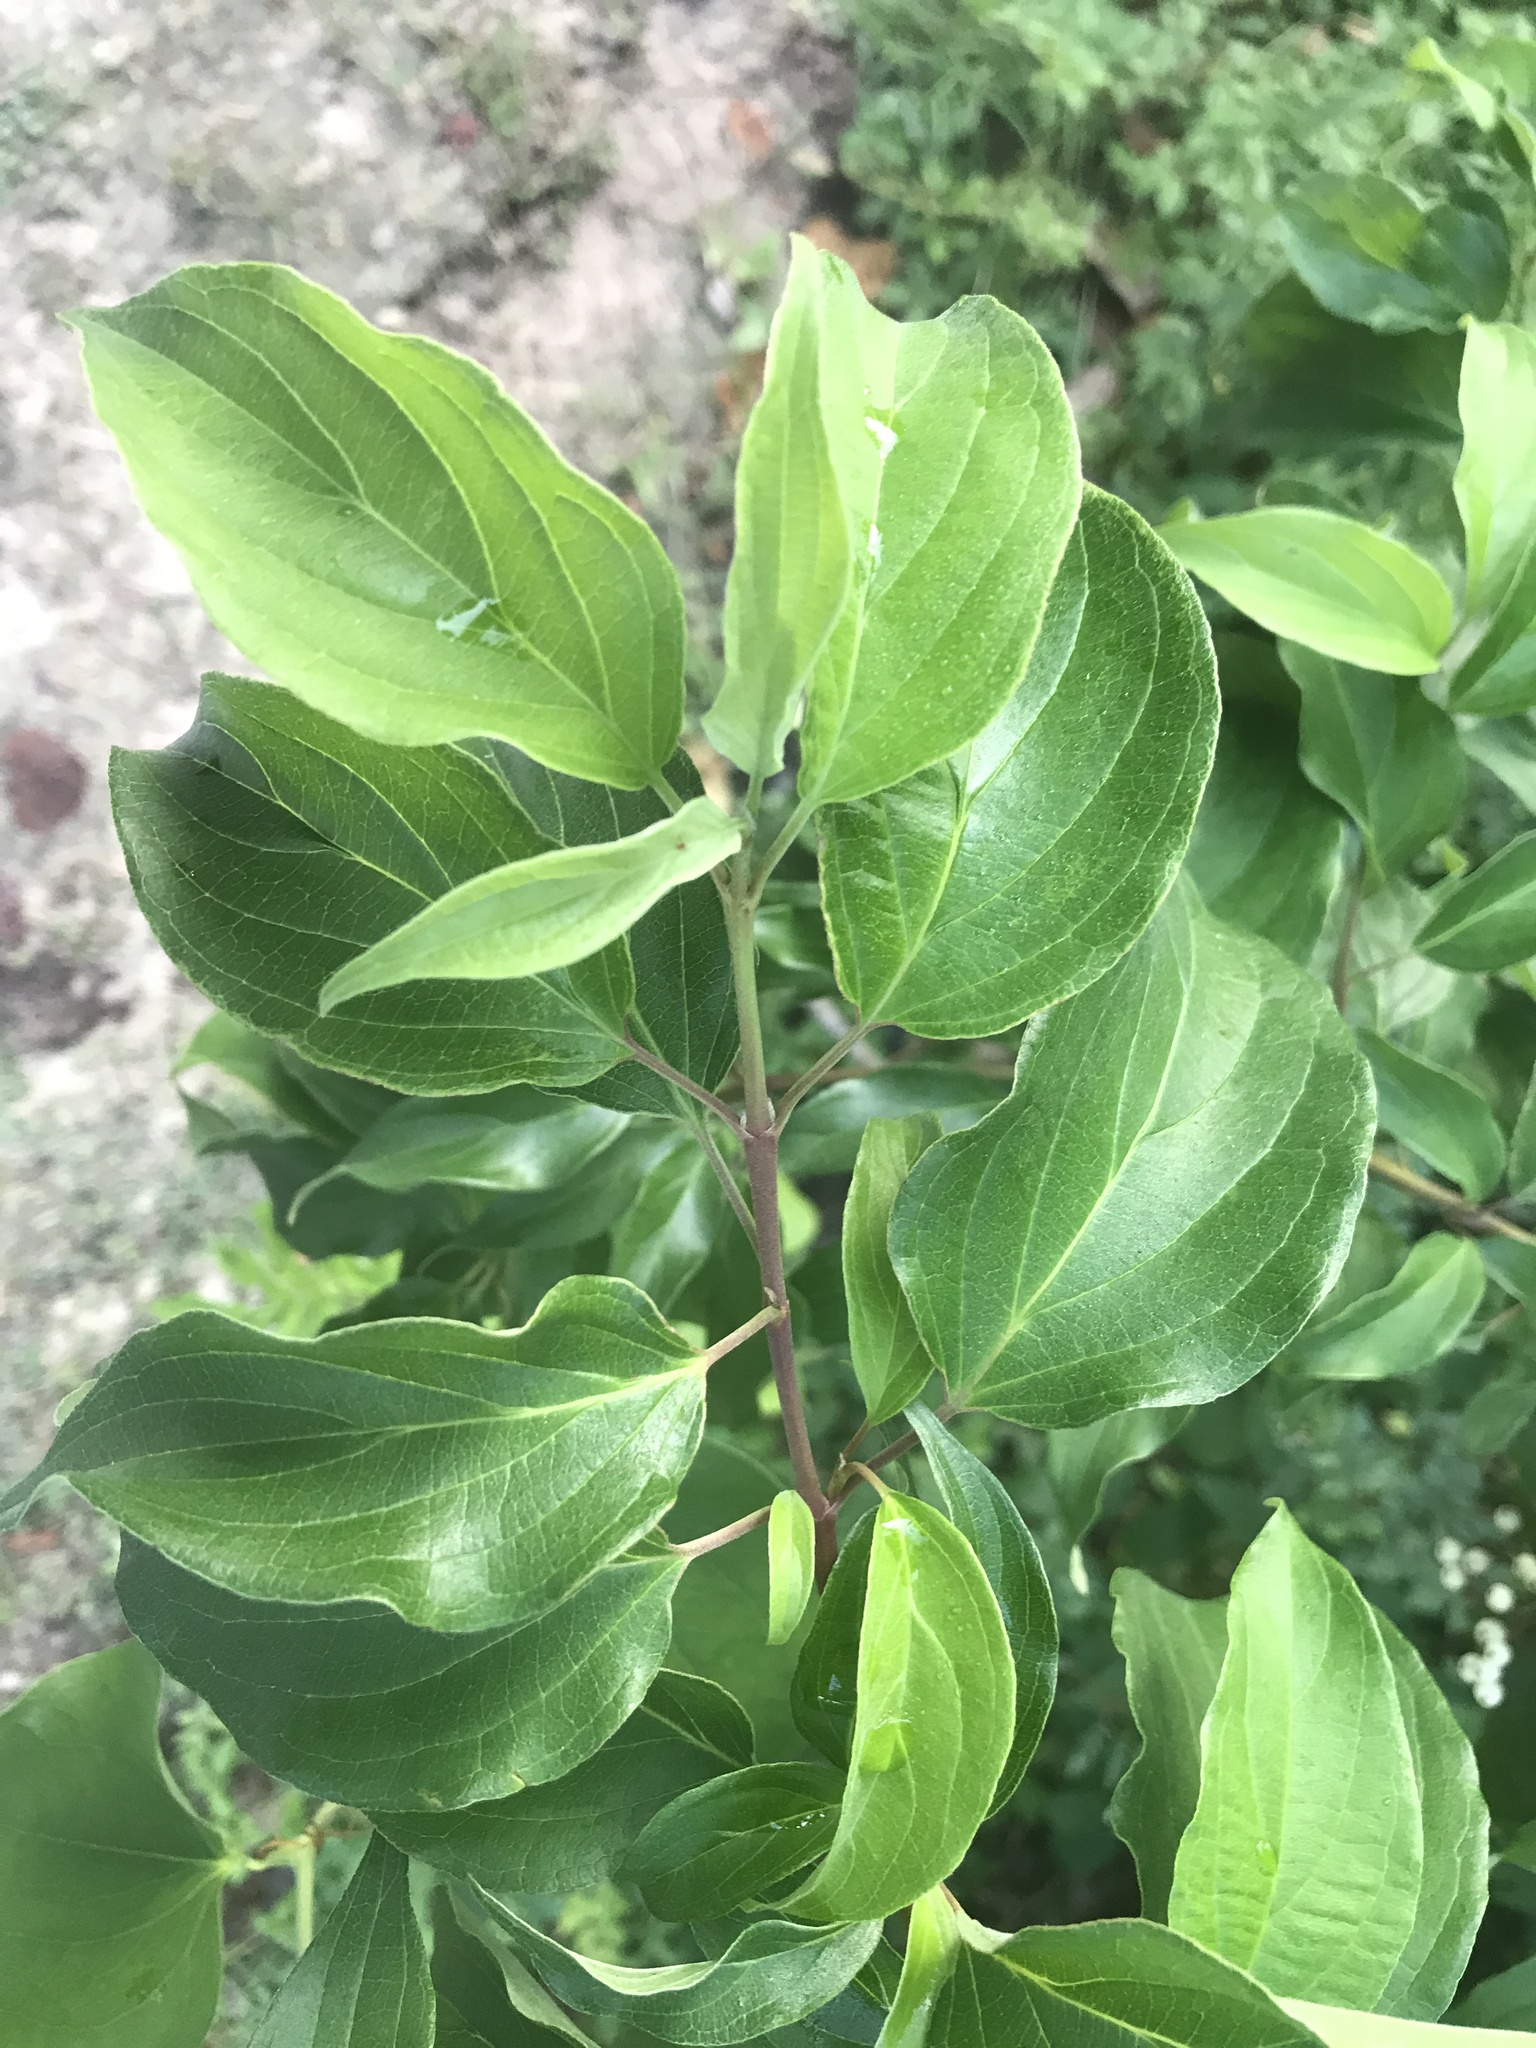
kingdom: Plantae
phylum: Tracheophyta
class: Magnoliopsida
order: Cornales
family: Cornaceae
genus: Cornus
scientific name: Cornus drummondii
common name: Rough-leaf dogwood
